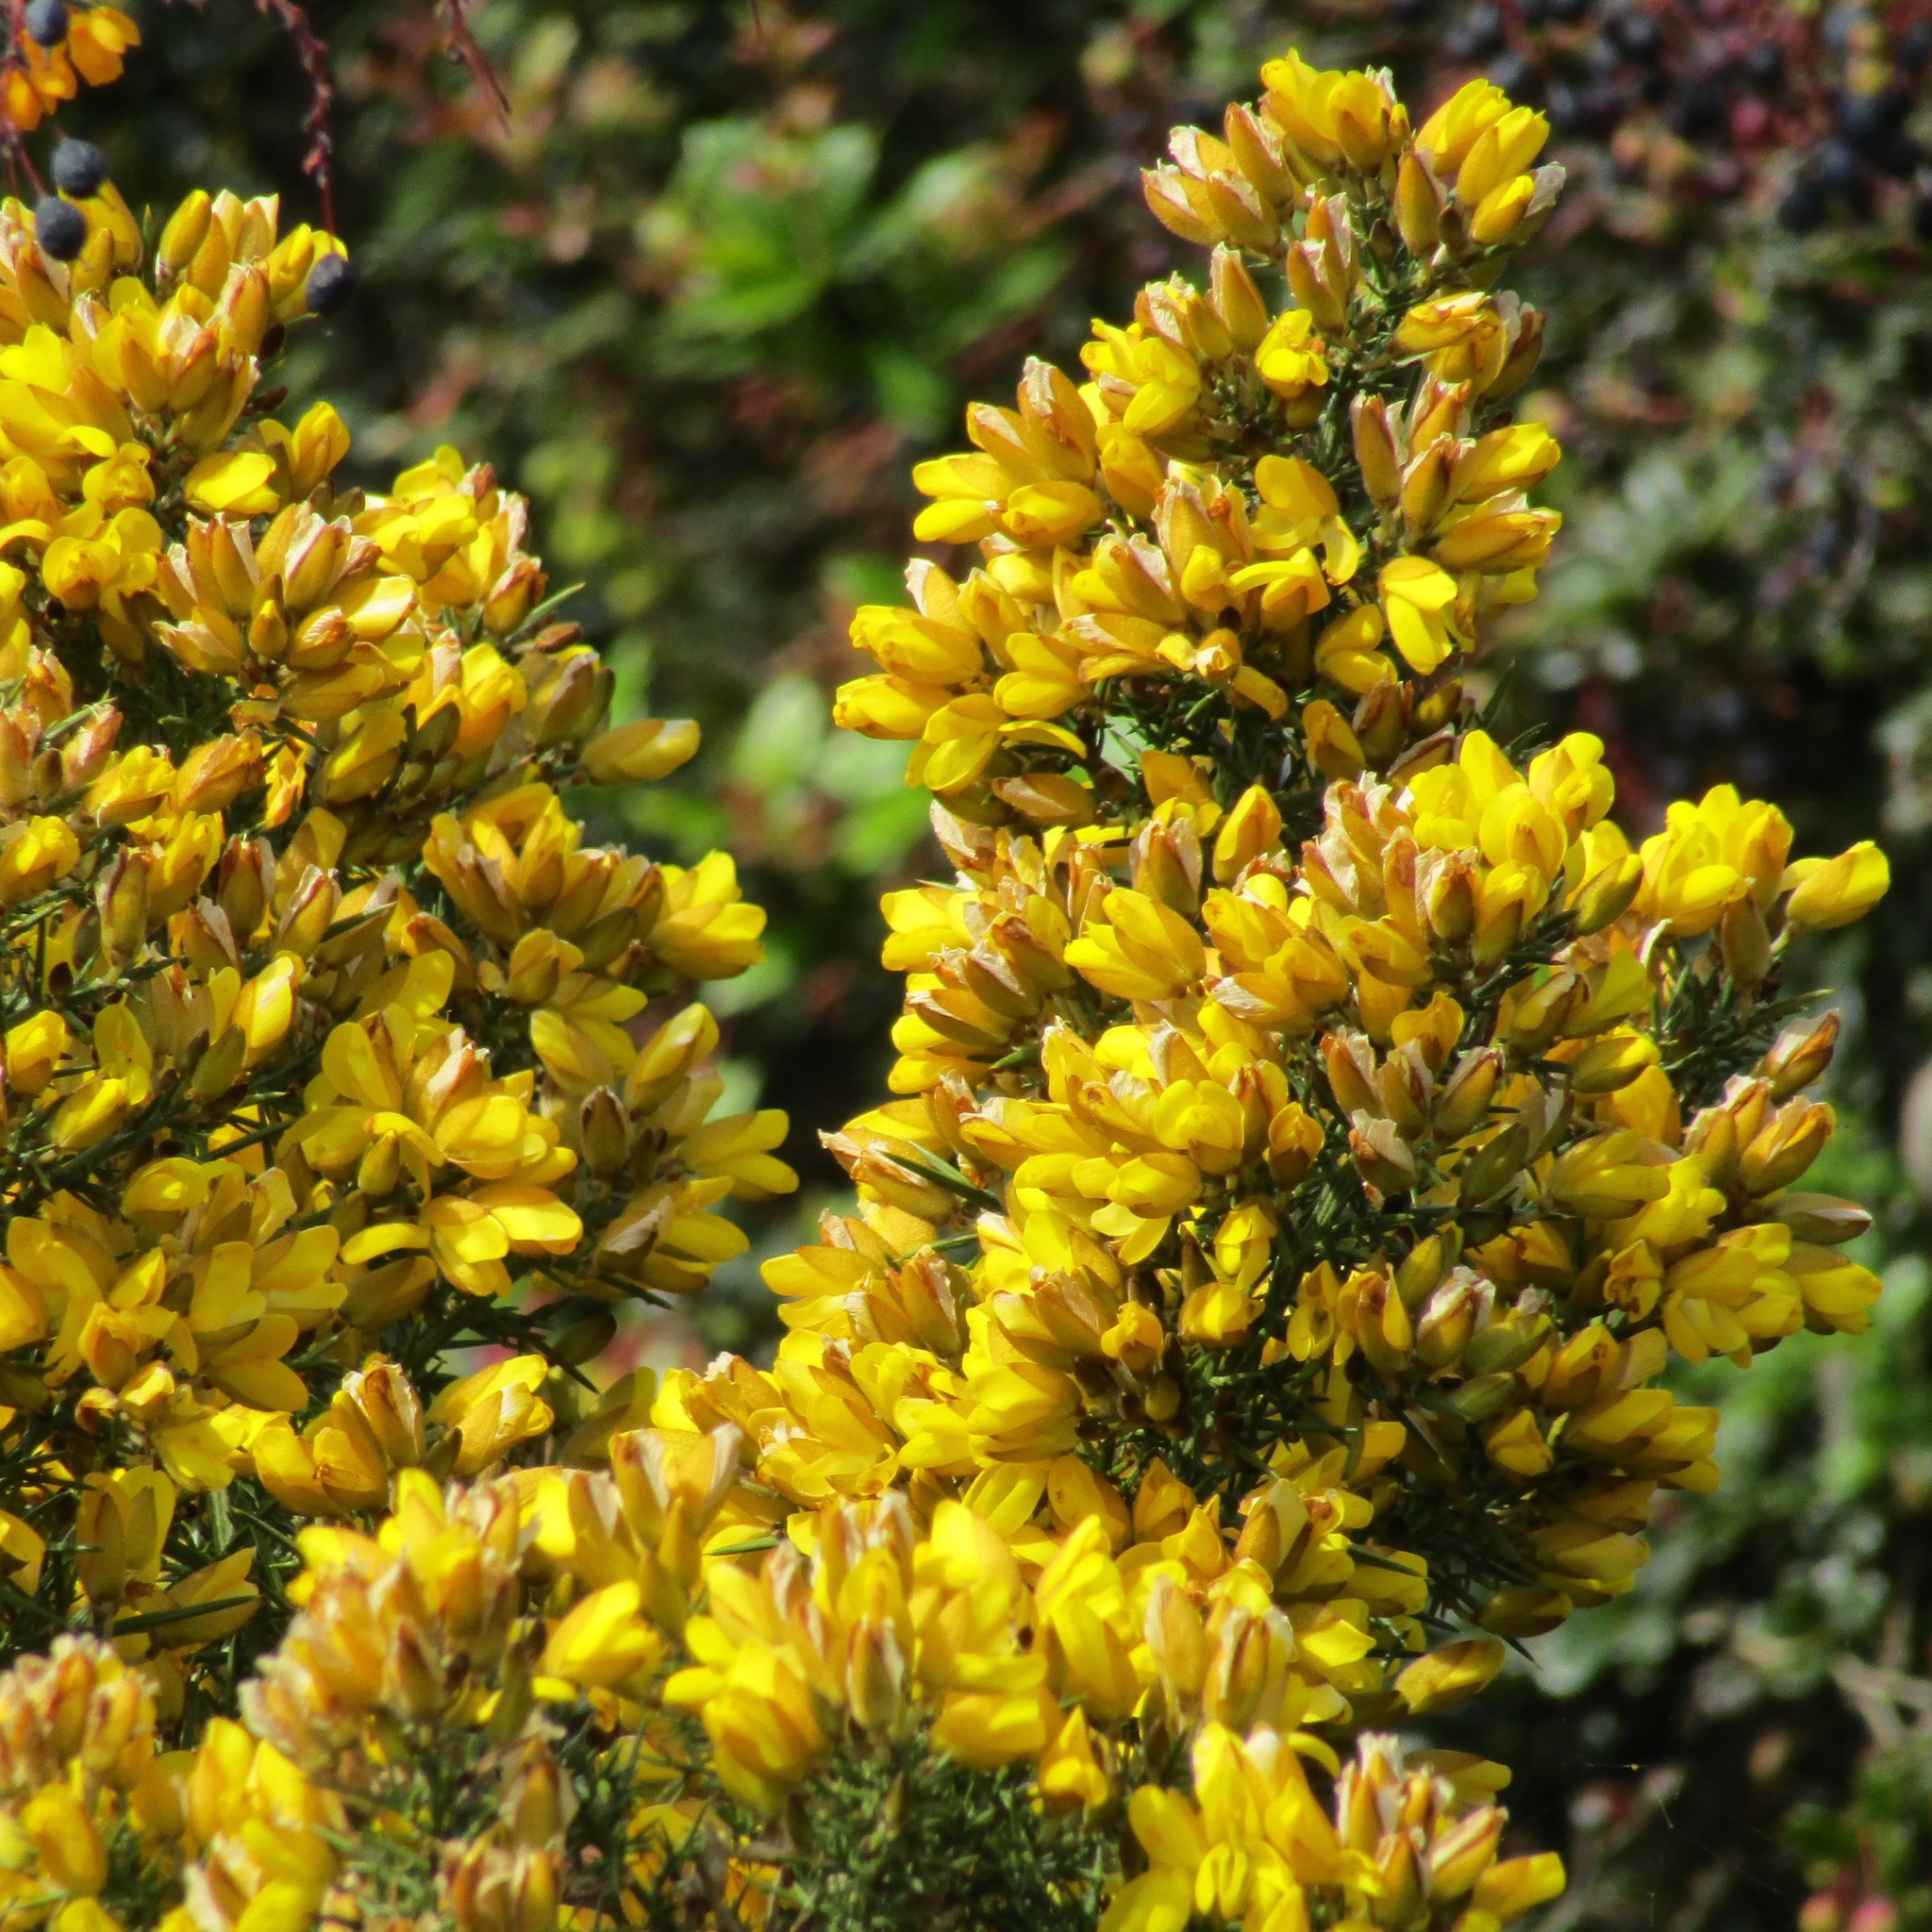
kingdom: Plantae
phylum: Tracheophyta
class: Magnoliopsida
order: Fabales
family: Fabaceae
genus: Ulex
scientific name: Ulex europaeus
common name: Common gorse
